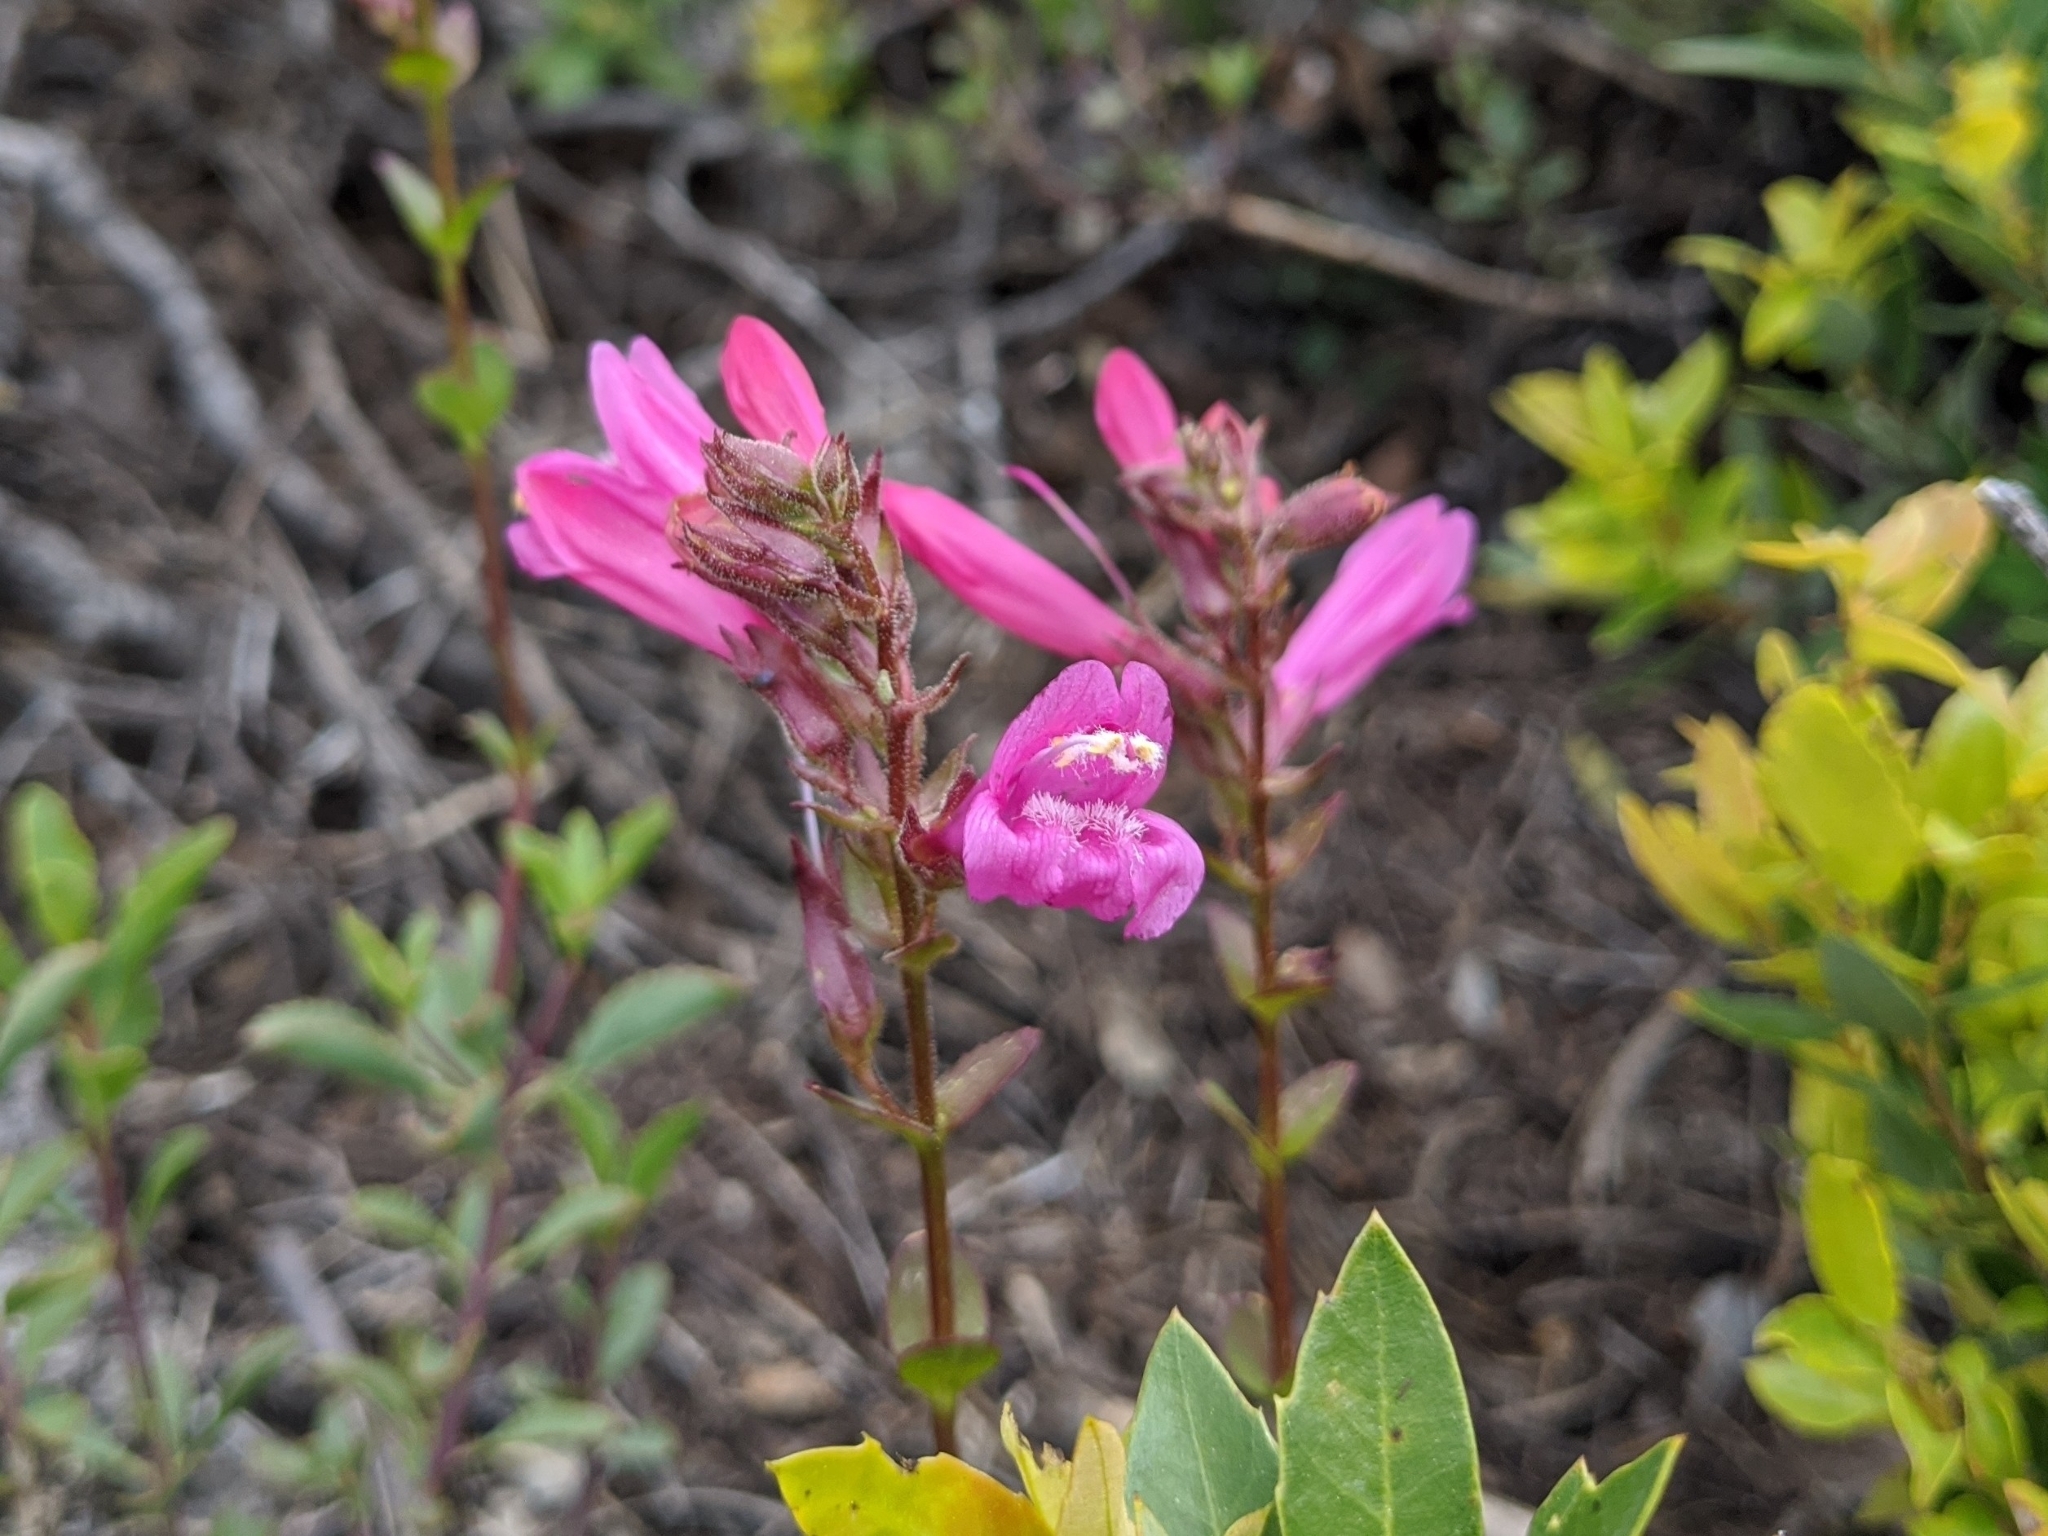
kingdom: Plantae
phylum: Tracheophyta
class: Magnoliopsida
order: Lamiales
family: Plantaginaceae
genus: Penstemon
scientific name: Penstemon newberryi
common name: Mountain-pride
